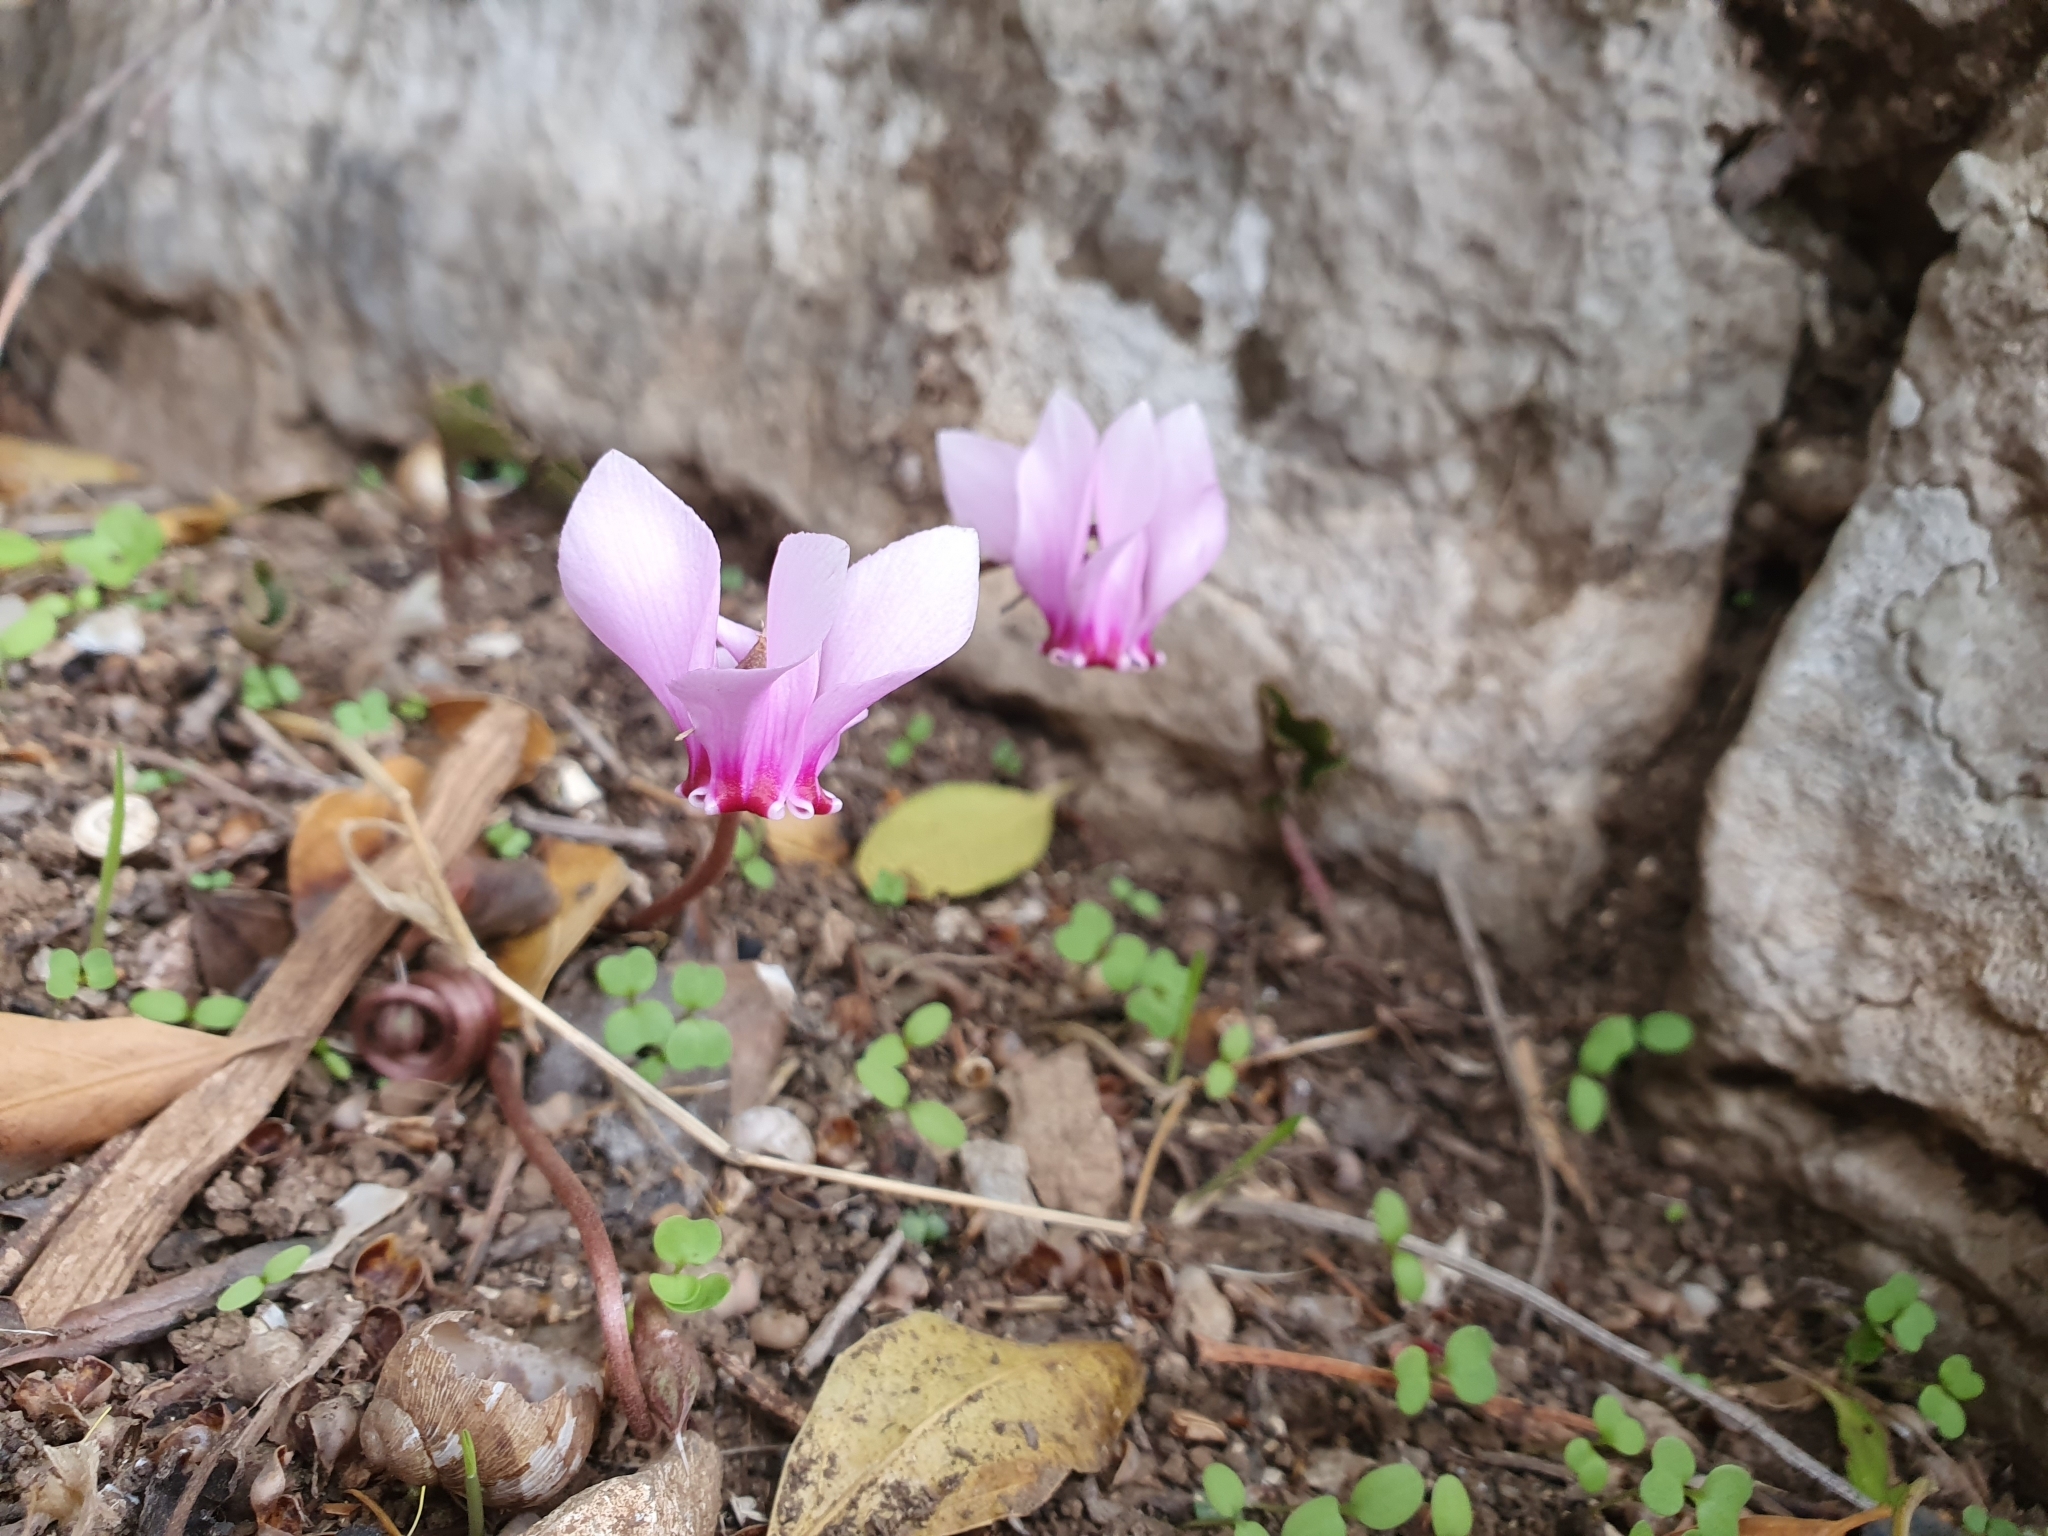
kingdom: Plantae
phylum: Tracheophyta
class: Magnoliopsida
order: Ericales
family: Primulaceae
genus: Cyclamen
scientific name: Cyclamen africanum
